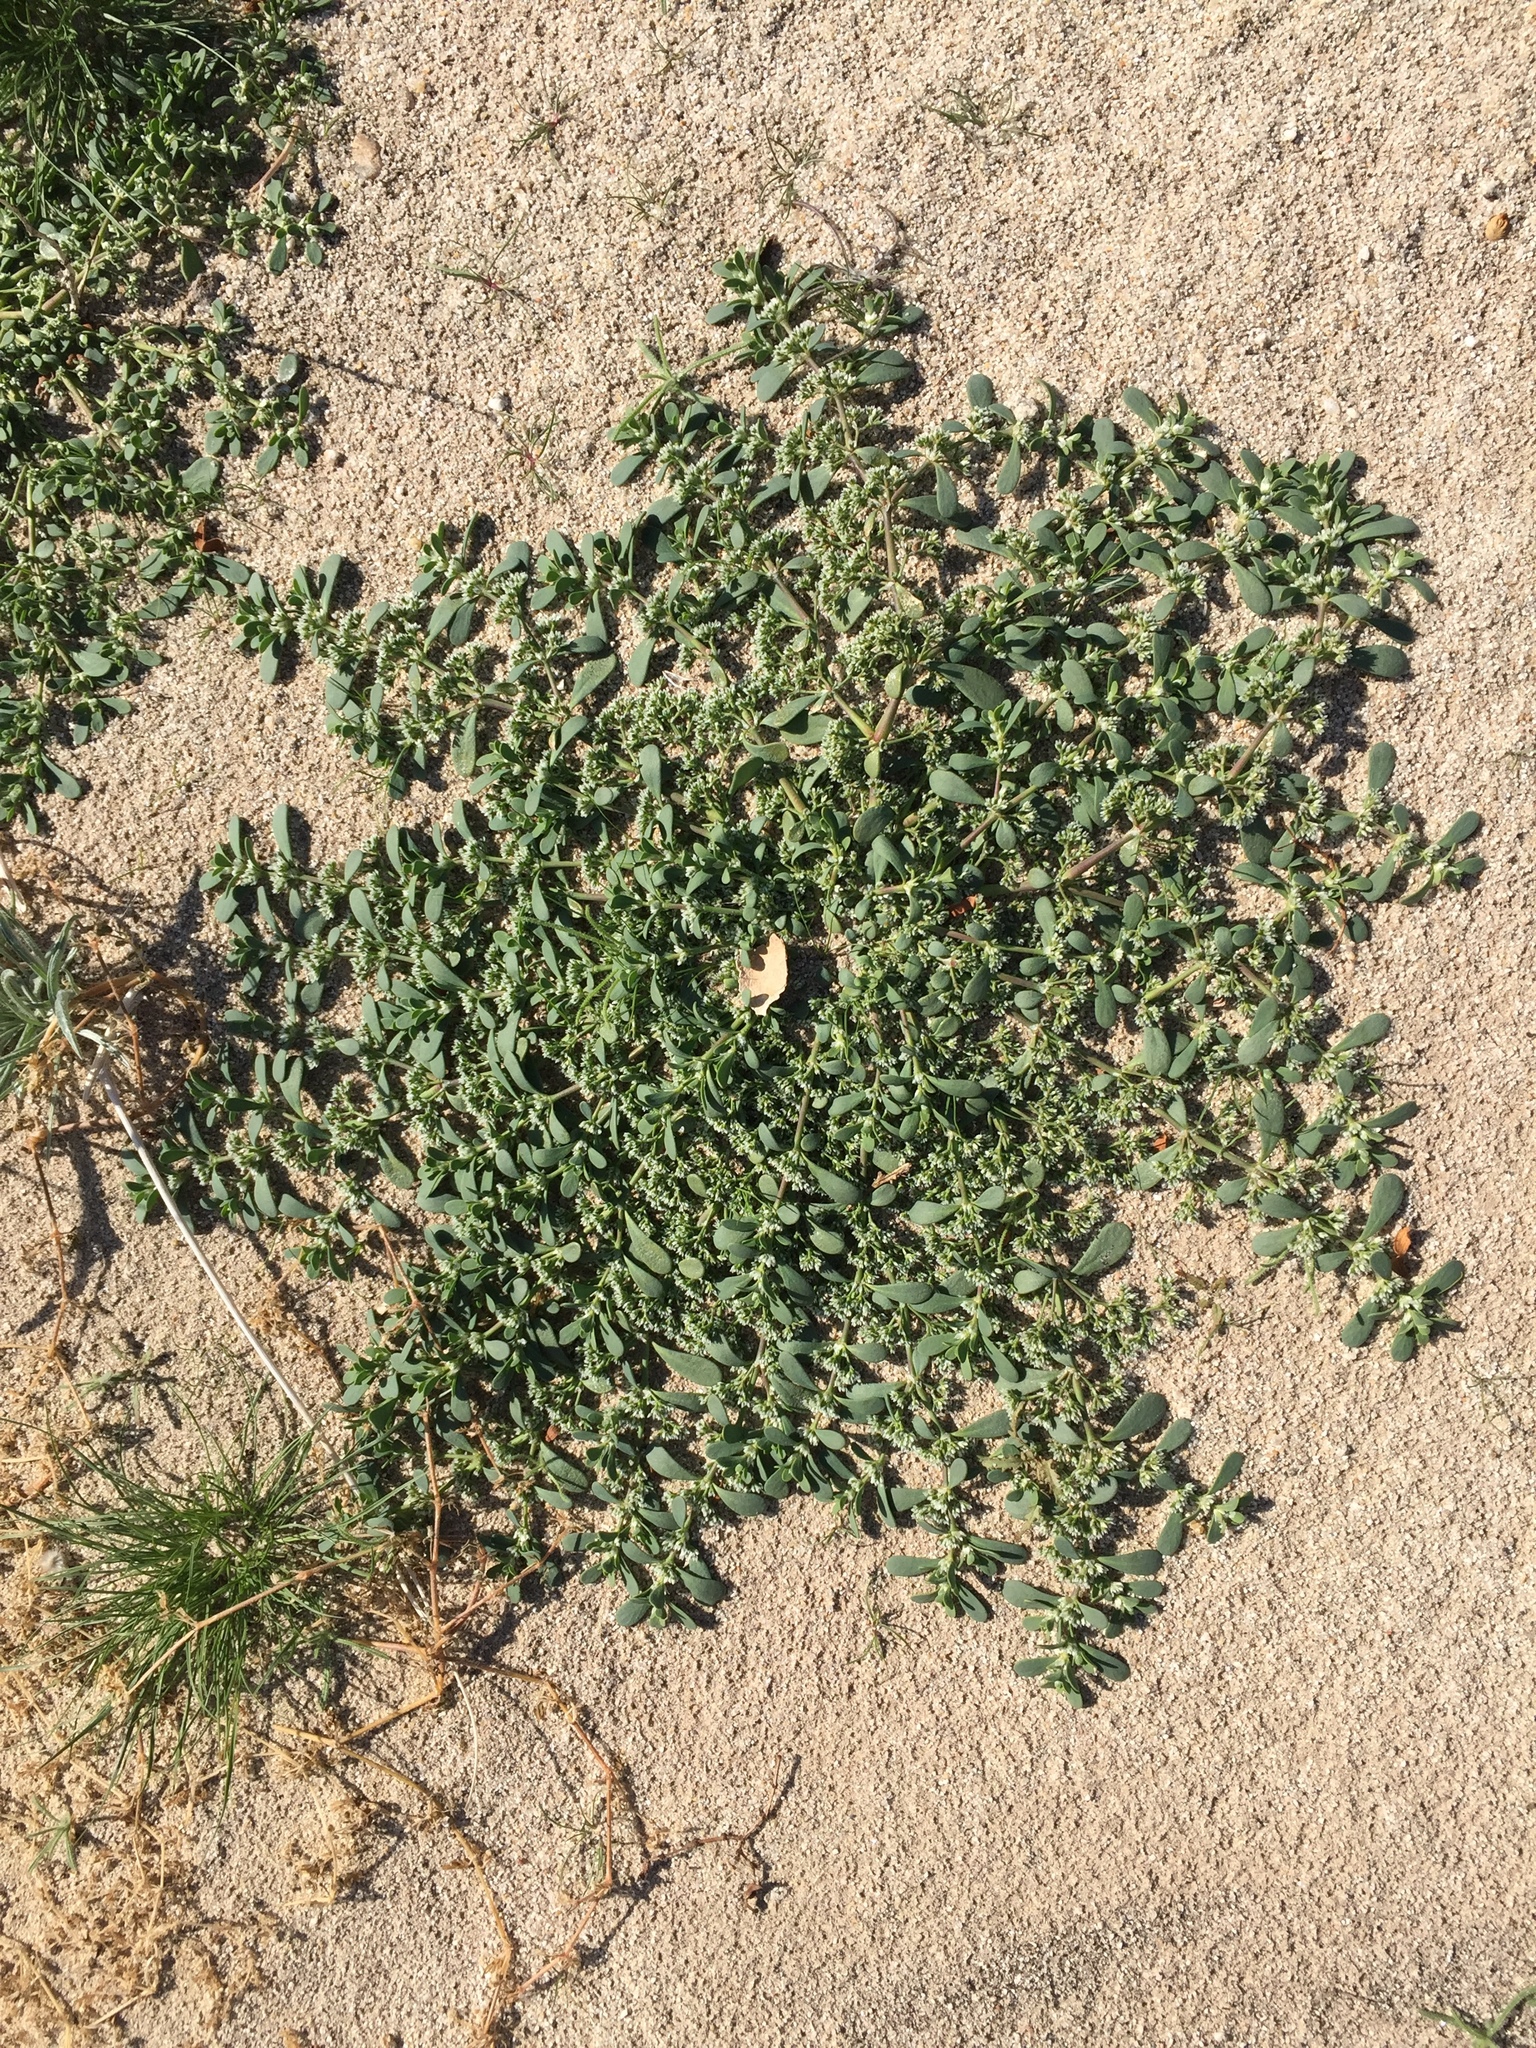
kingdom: Plantae
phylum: Tracheophyta
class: Magnoliopsida
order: Caryophyllales
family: Caryophyllaceae
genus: Achyronychia
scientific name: Achyronychia cooperi
